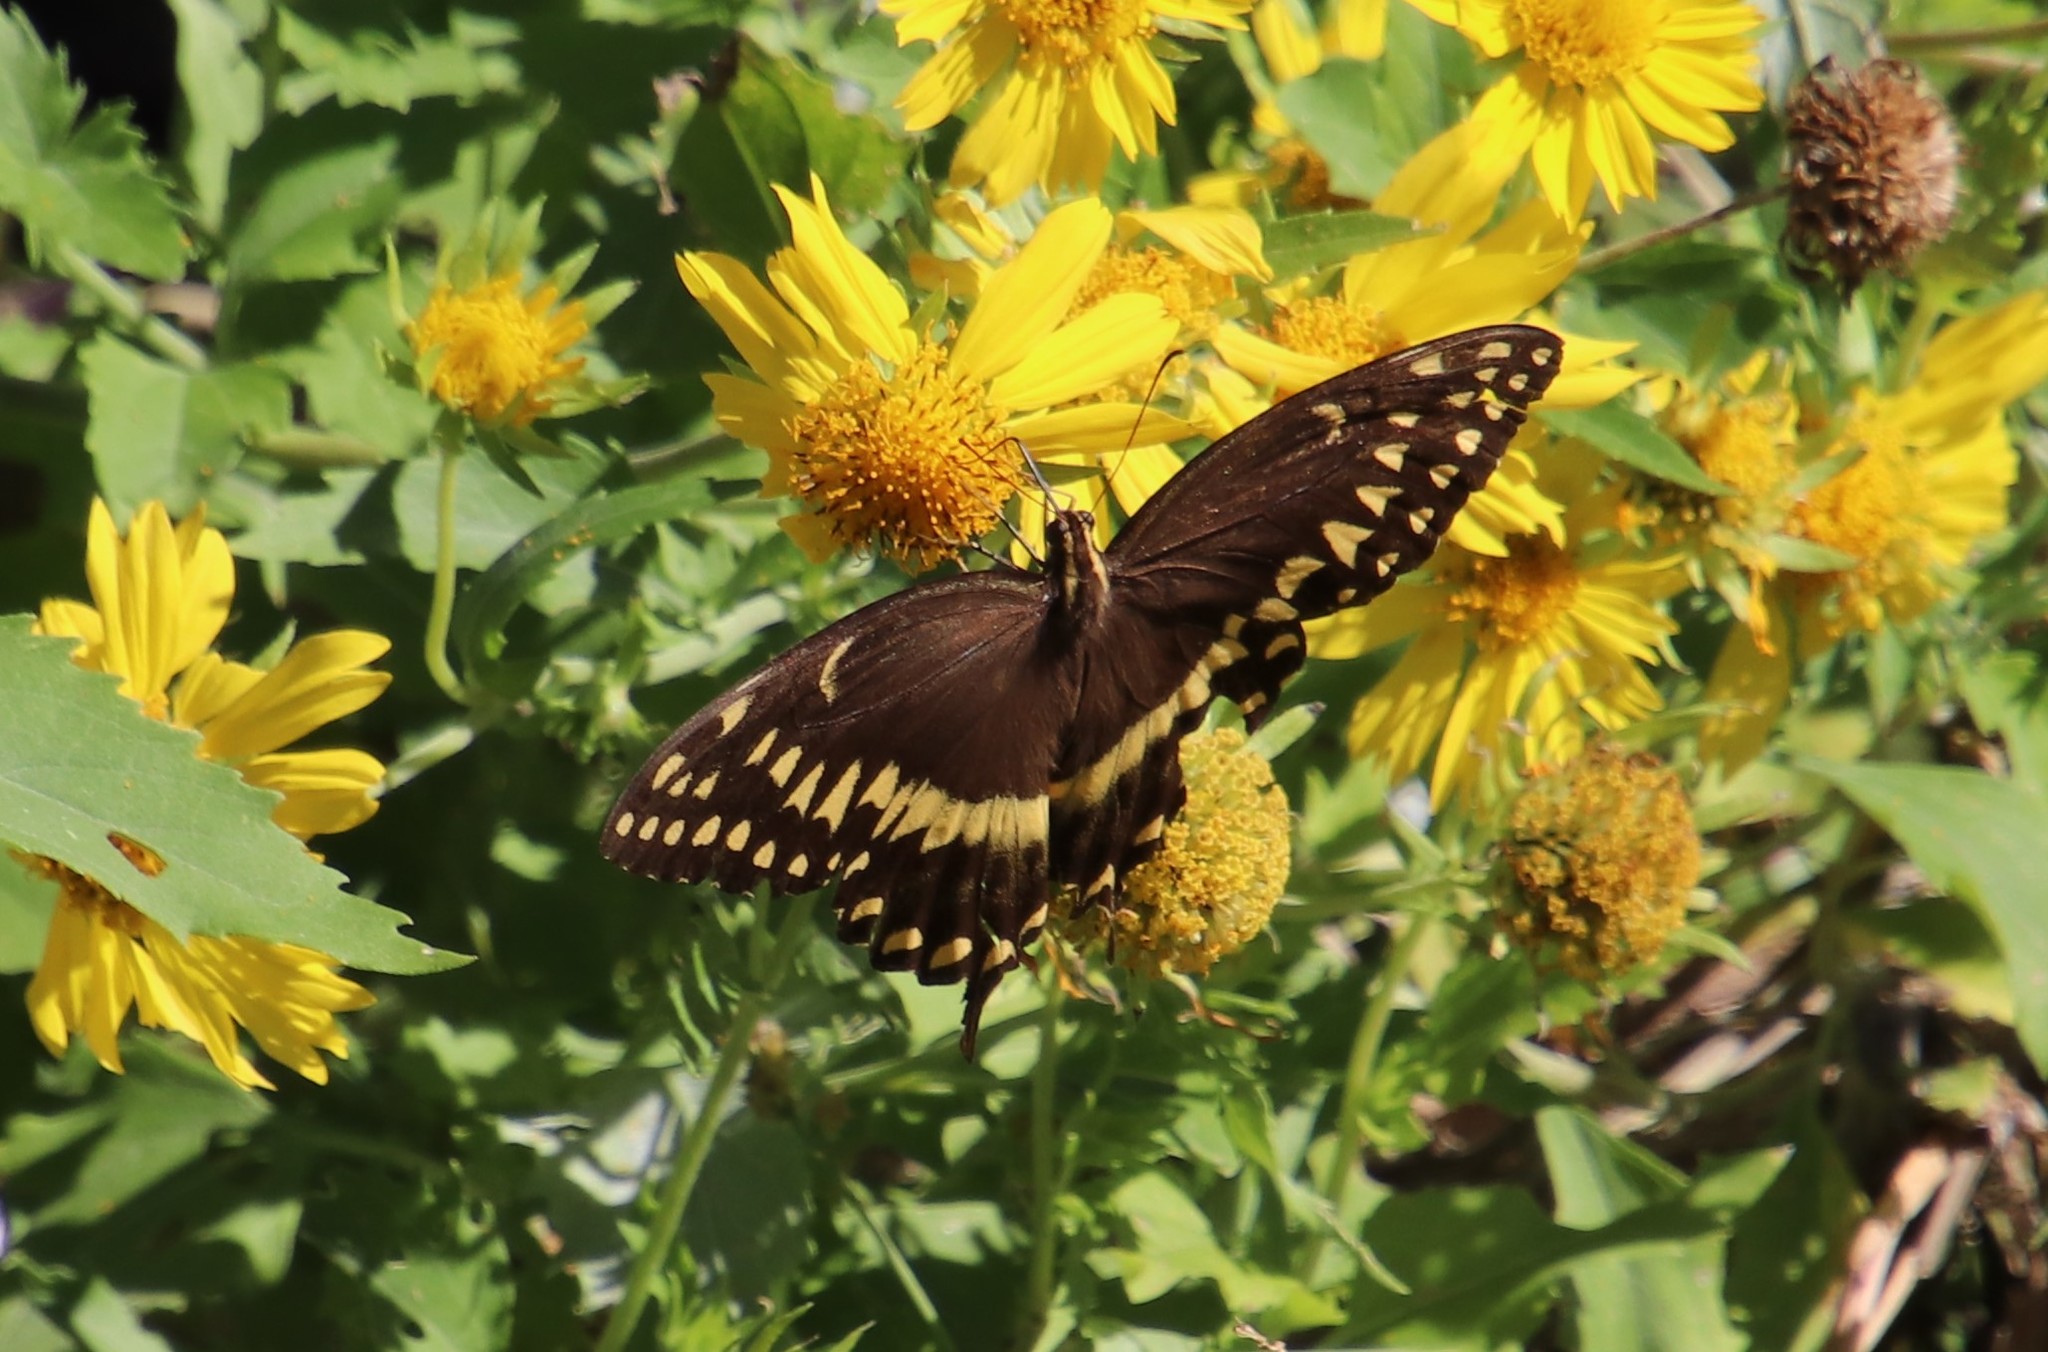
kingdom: Animalia
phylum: Arthropoda
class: Insecta
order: Lepidoptera
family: Papilionidae
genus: Papilio
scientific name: Papilio palamedes
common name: Palamedes swallowtail
